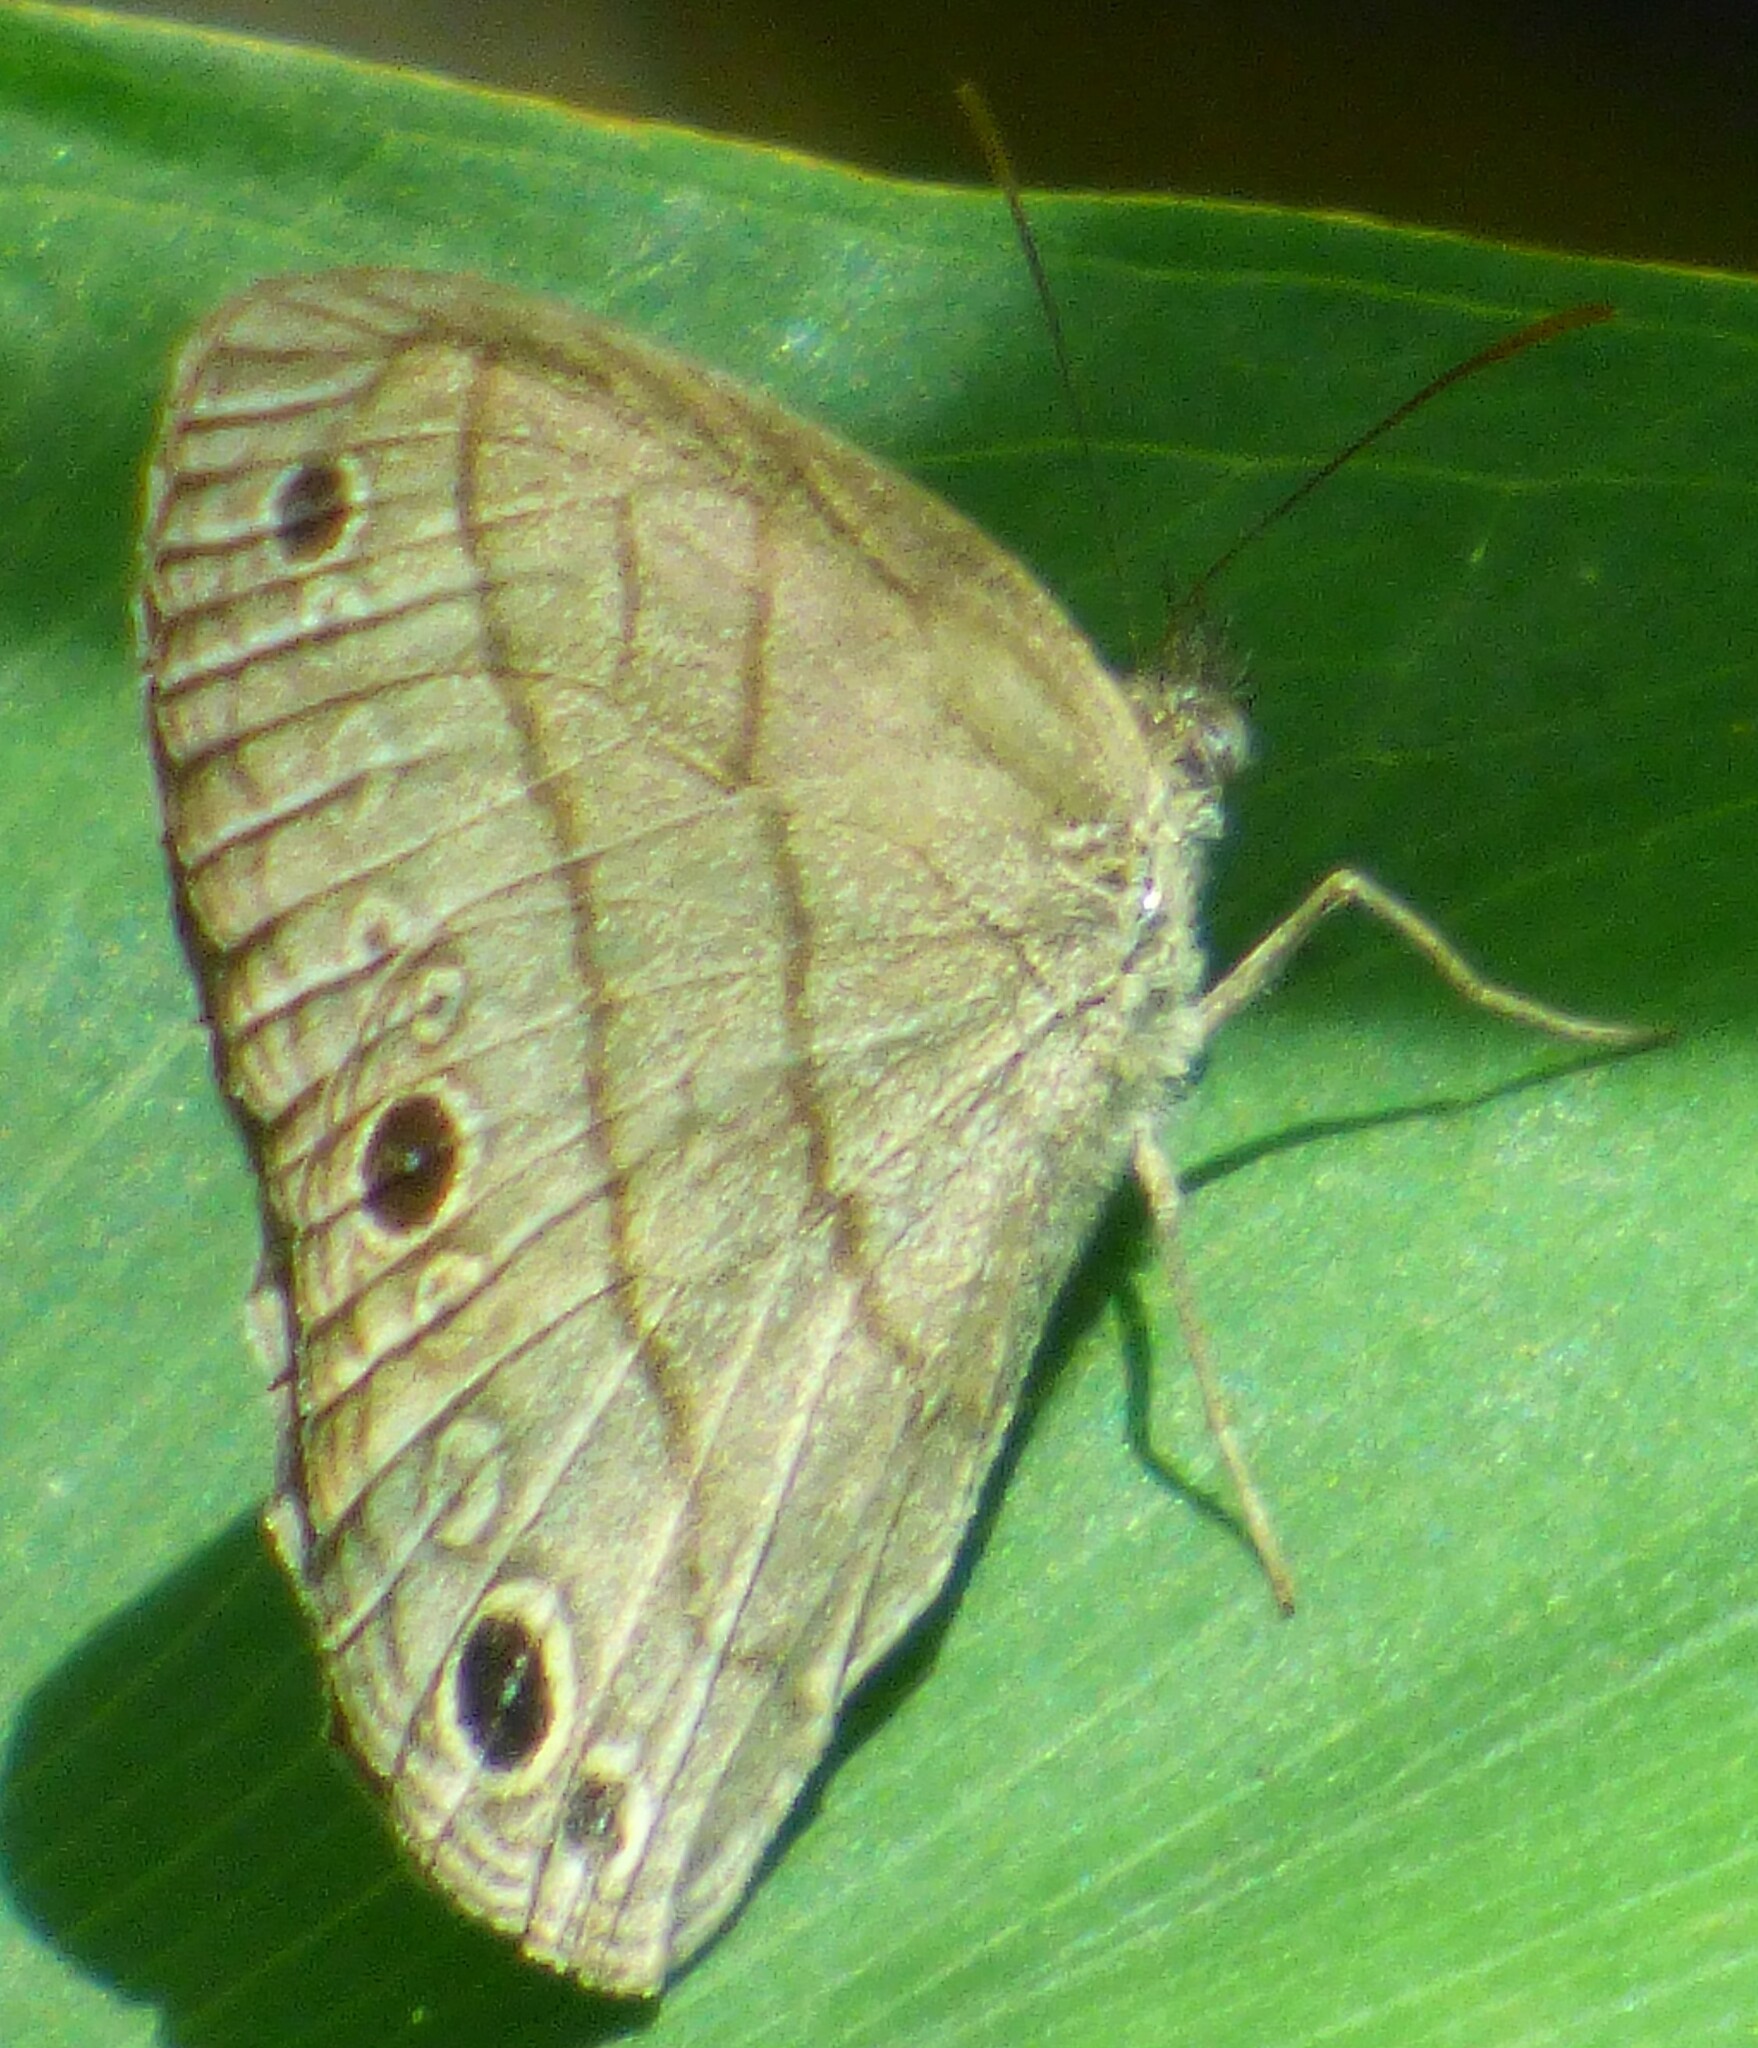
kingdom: Animalia
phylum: Arthropoda
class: Insecta
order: Lepidoptera
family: Nymphalidae
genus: Hermeuptychia
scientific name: Hermeuptychia intricata
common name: Intricate satyr
